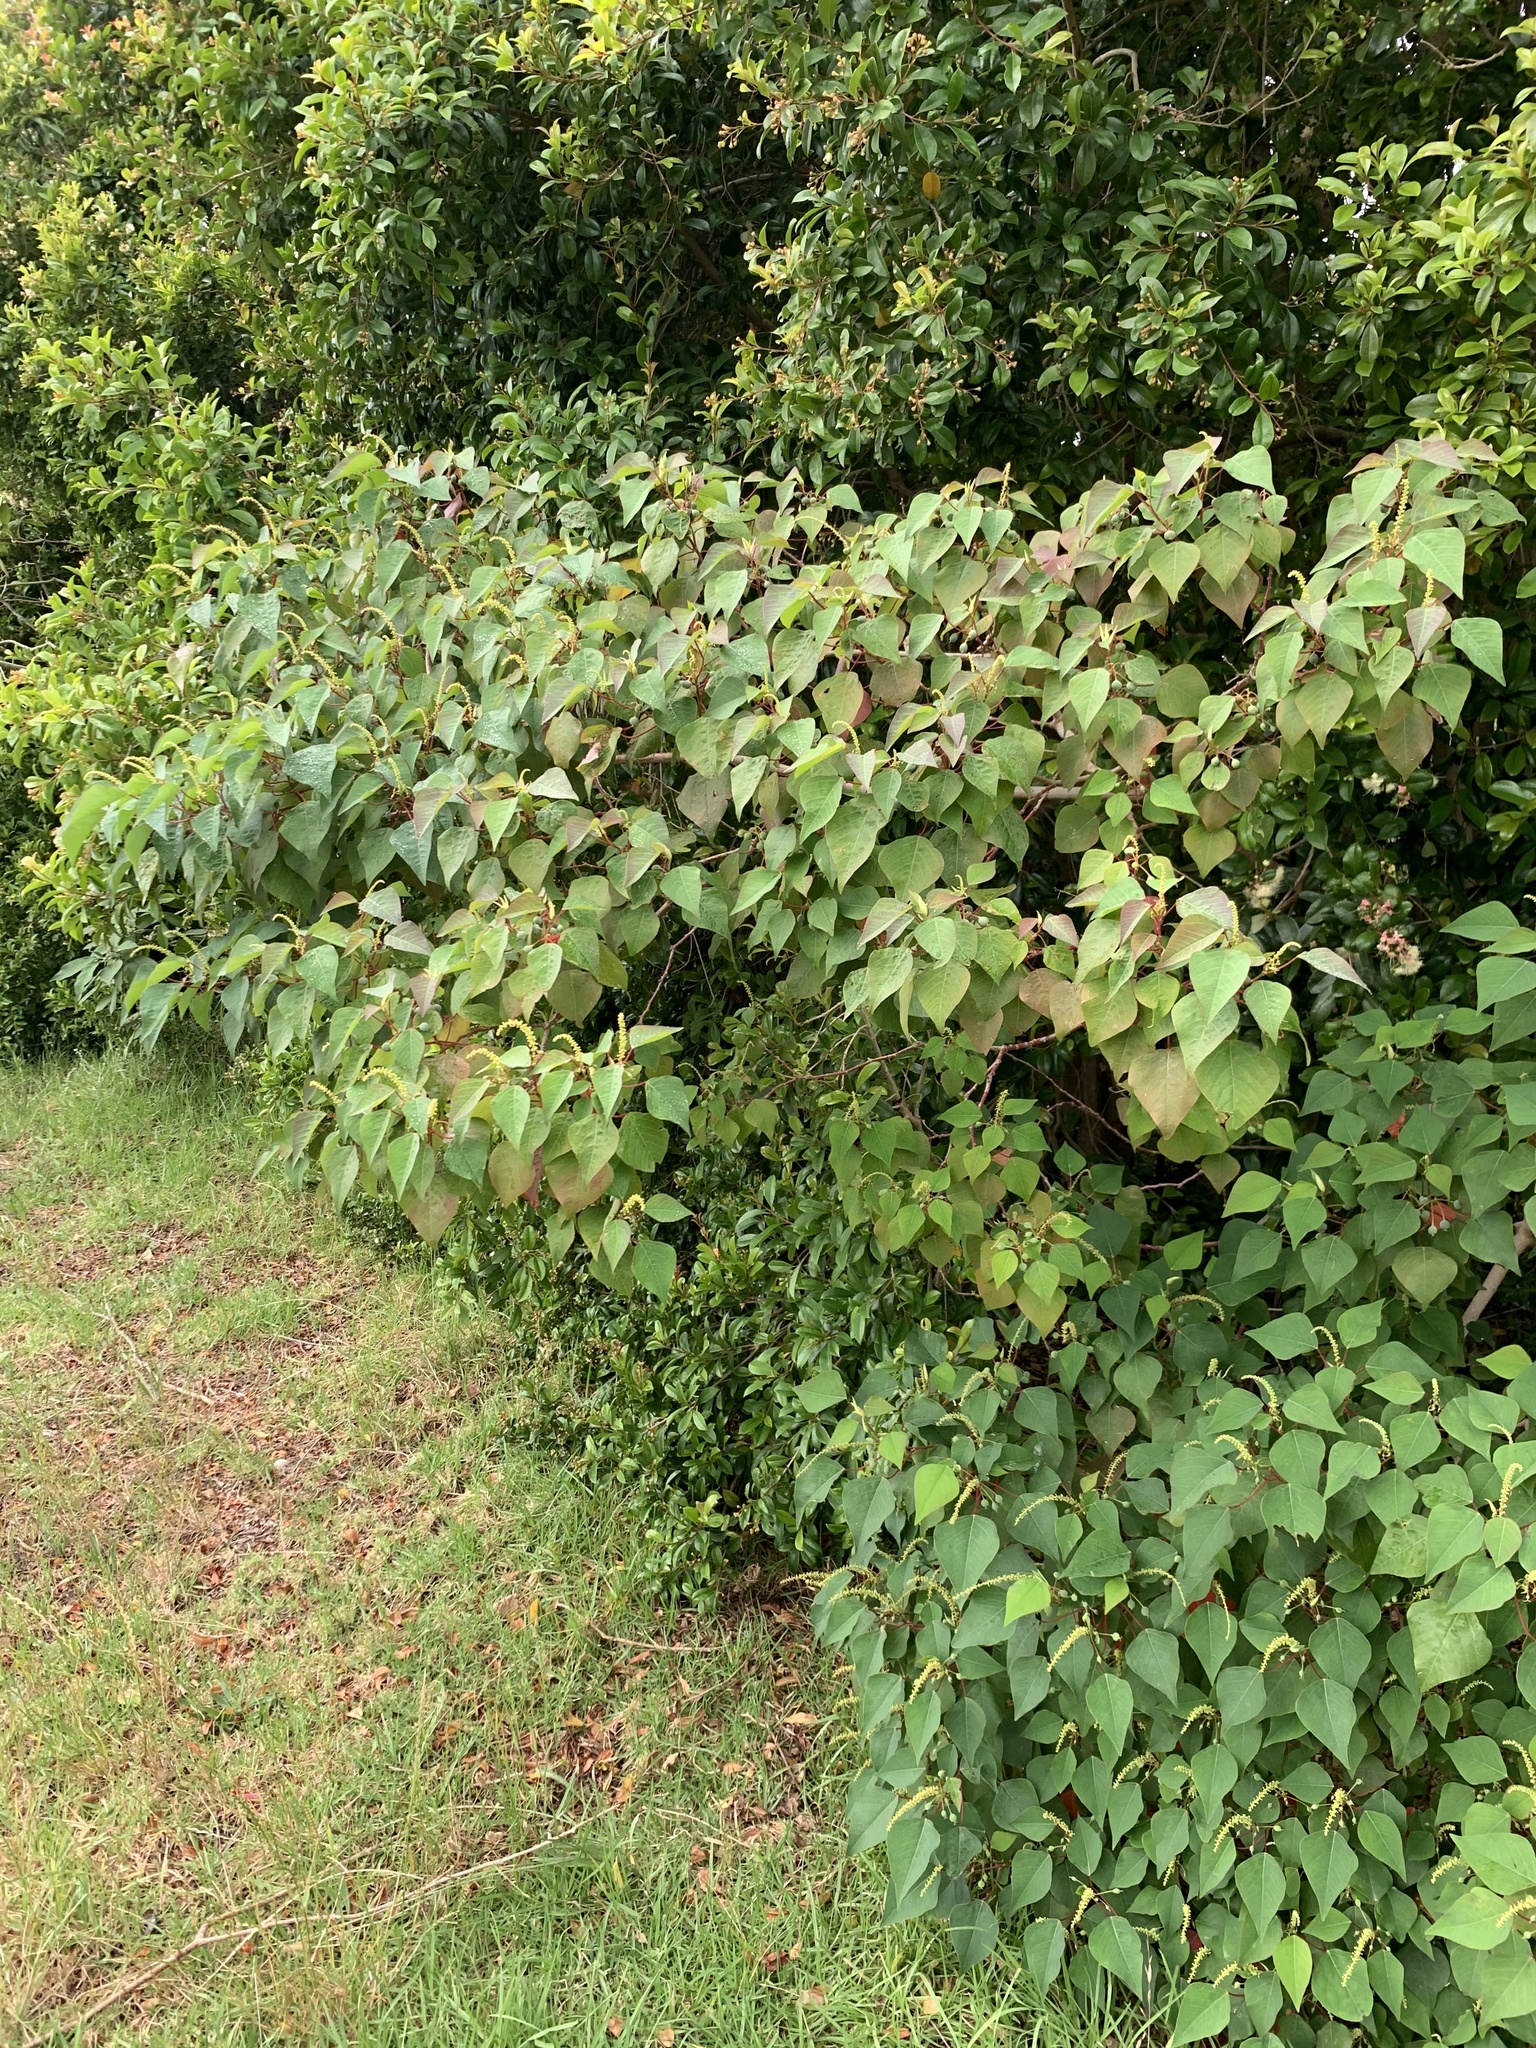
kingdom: Plantae
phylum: Tracheophyta
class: Magnoliopsida
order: Malpighiales
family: Euphorbiaceae
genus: Homalanthus
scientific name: Homalanthus populifolius
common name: Queensland poplar
